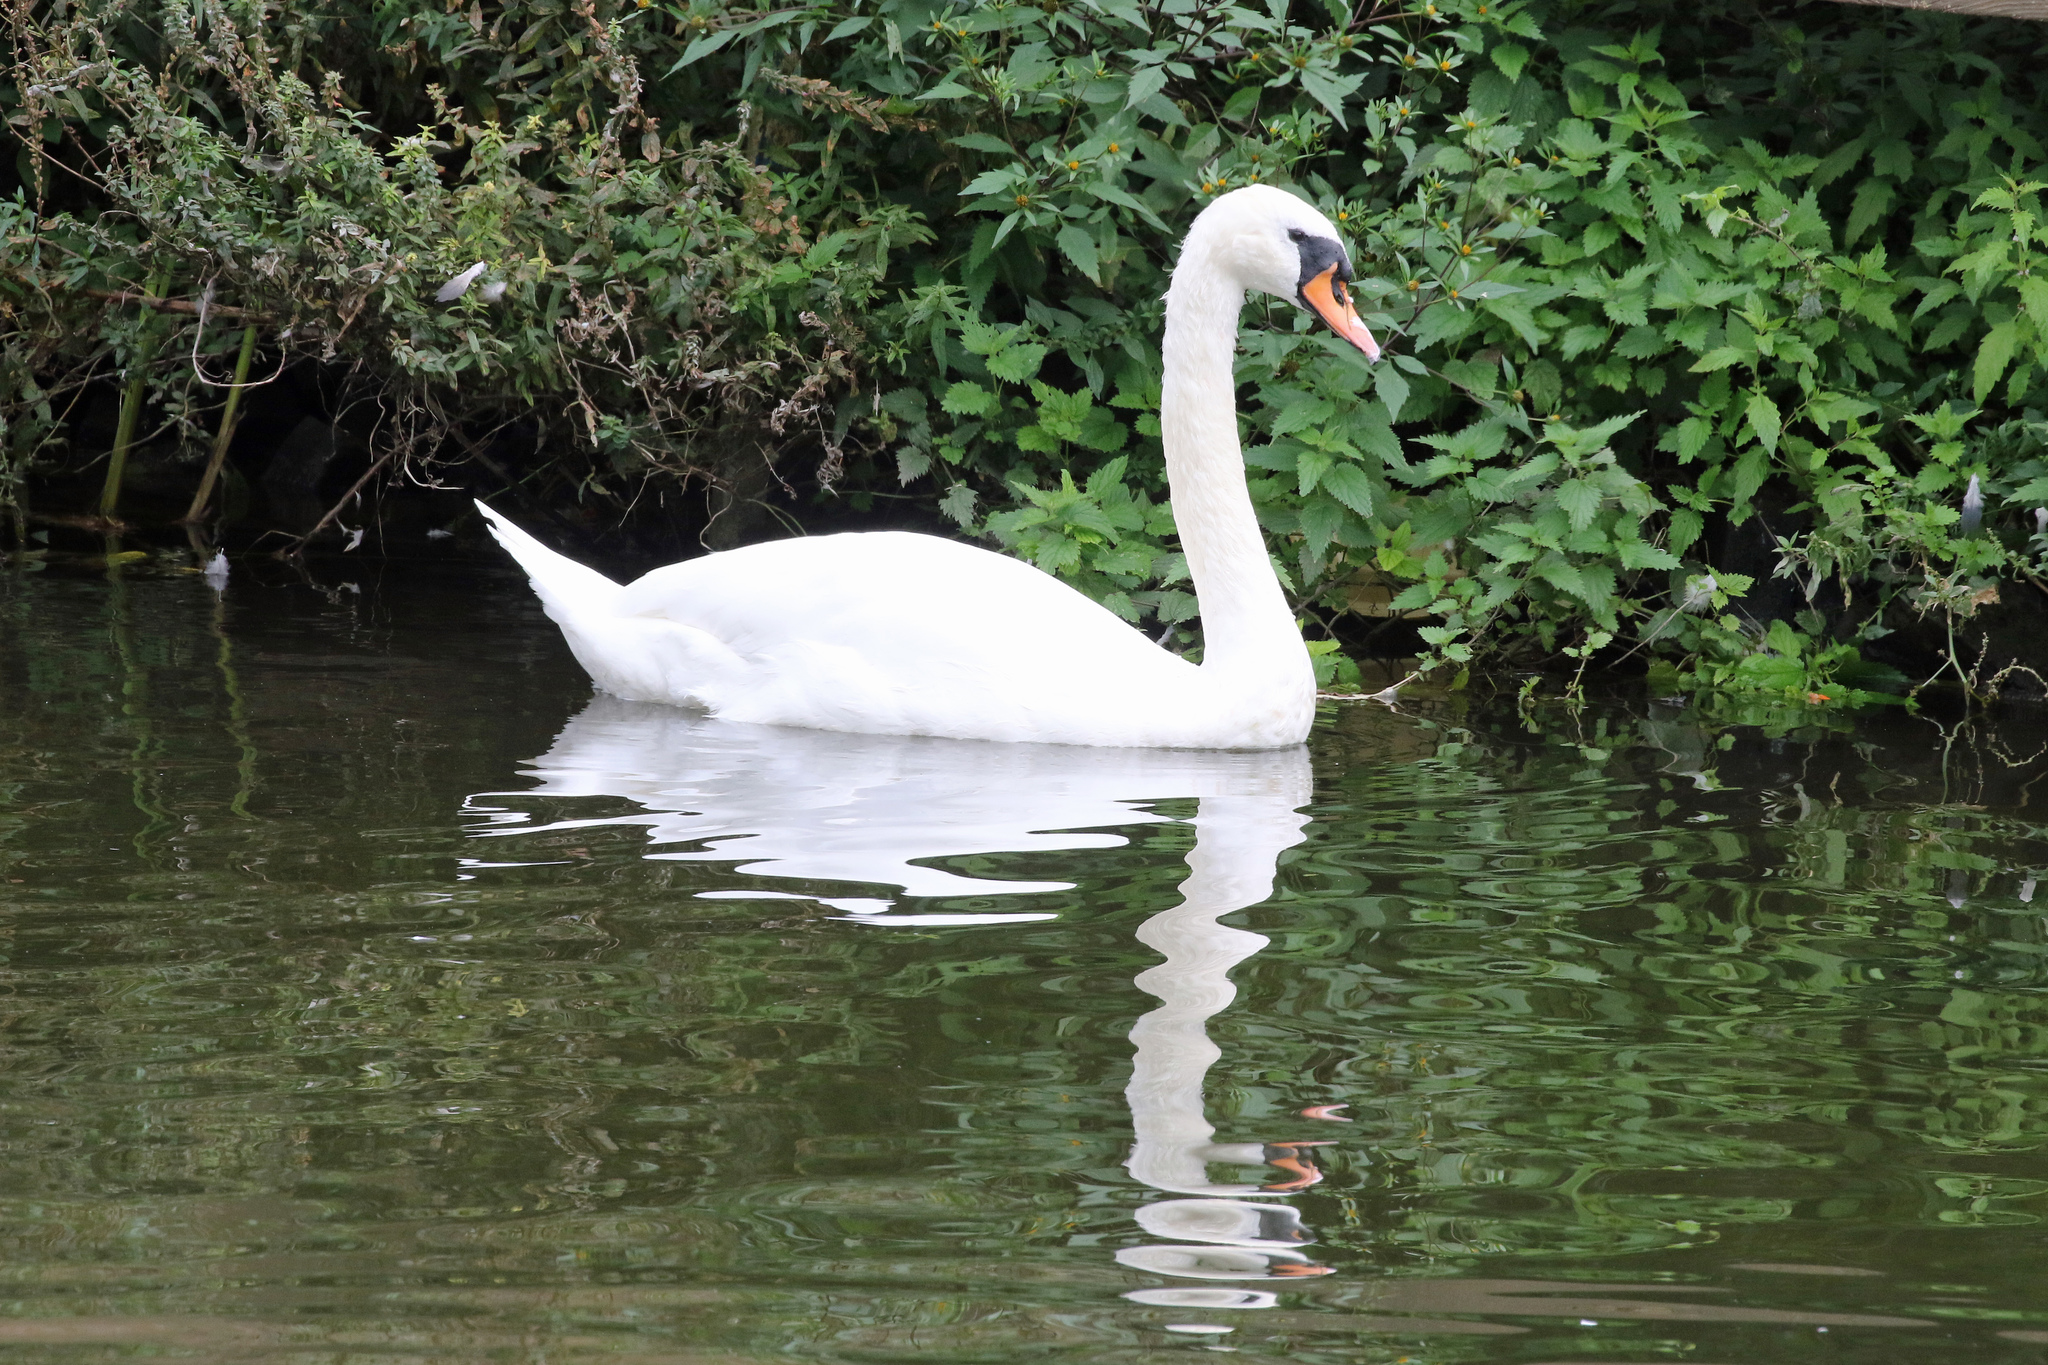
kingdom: Animalia
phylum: Chordata
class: Aves
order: Anseriformes
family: Anatidae
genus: Cygnus
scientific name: Cygnus olor
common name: Mute swan
